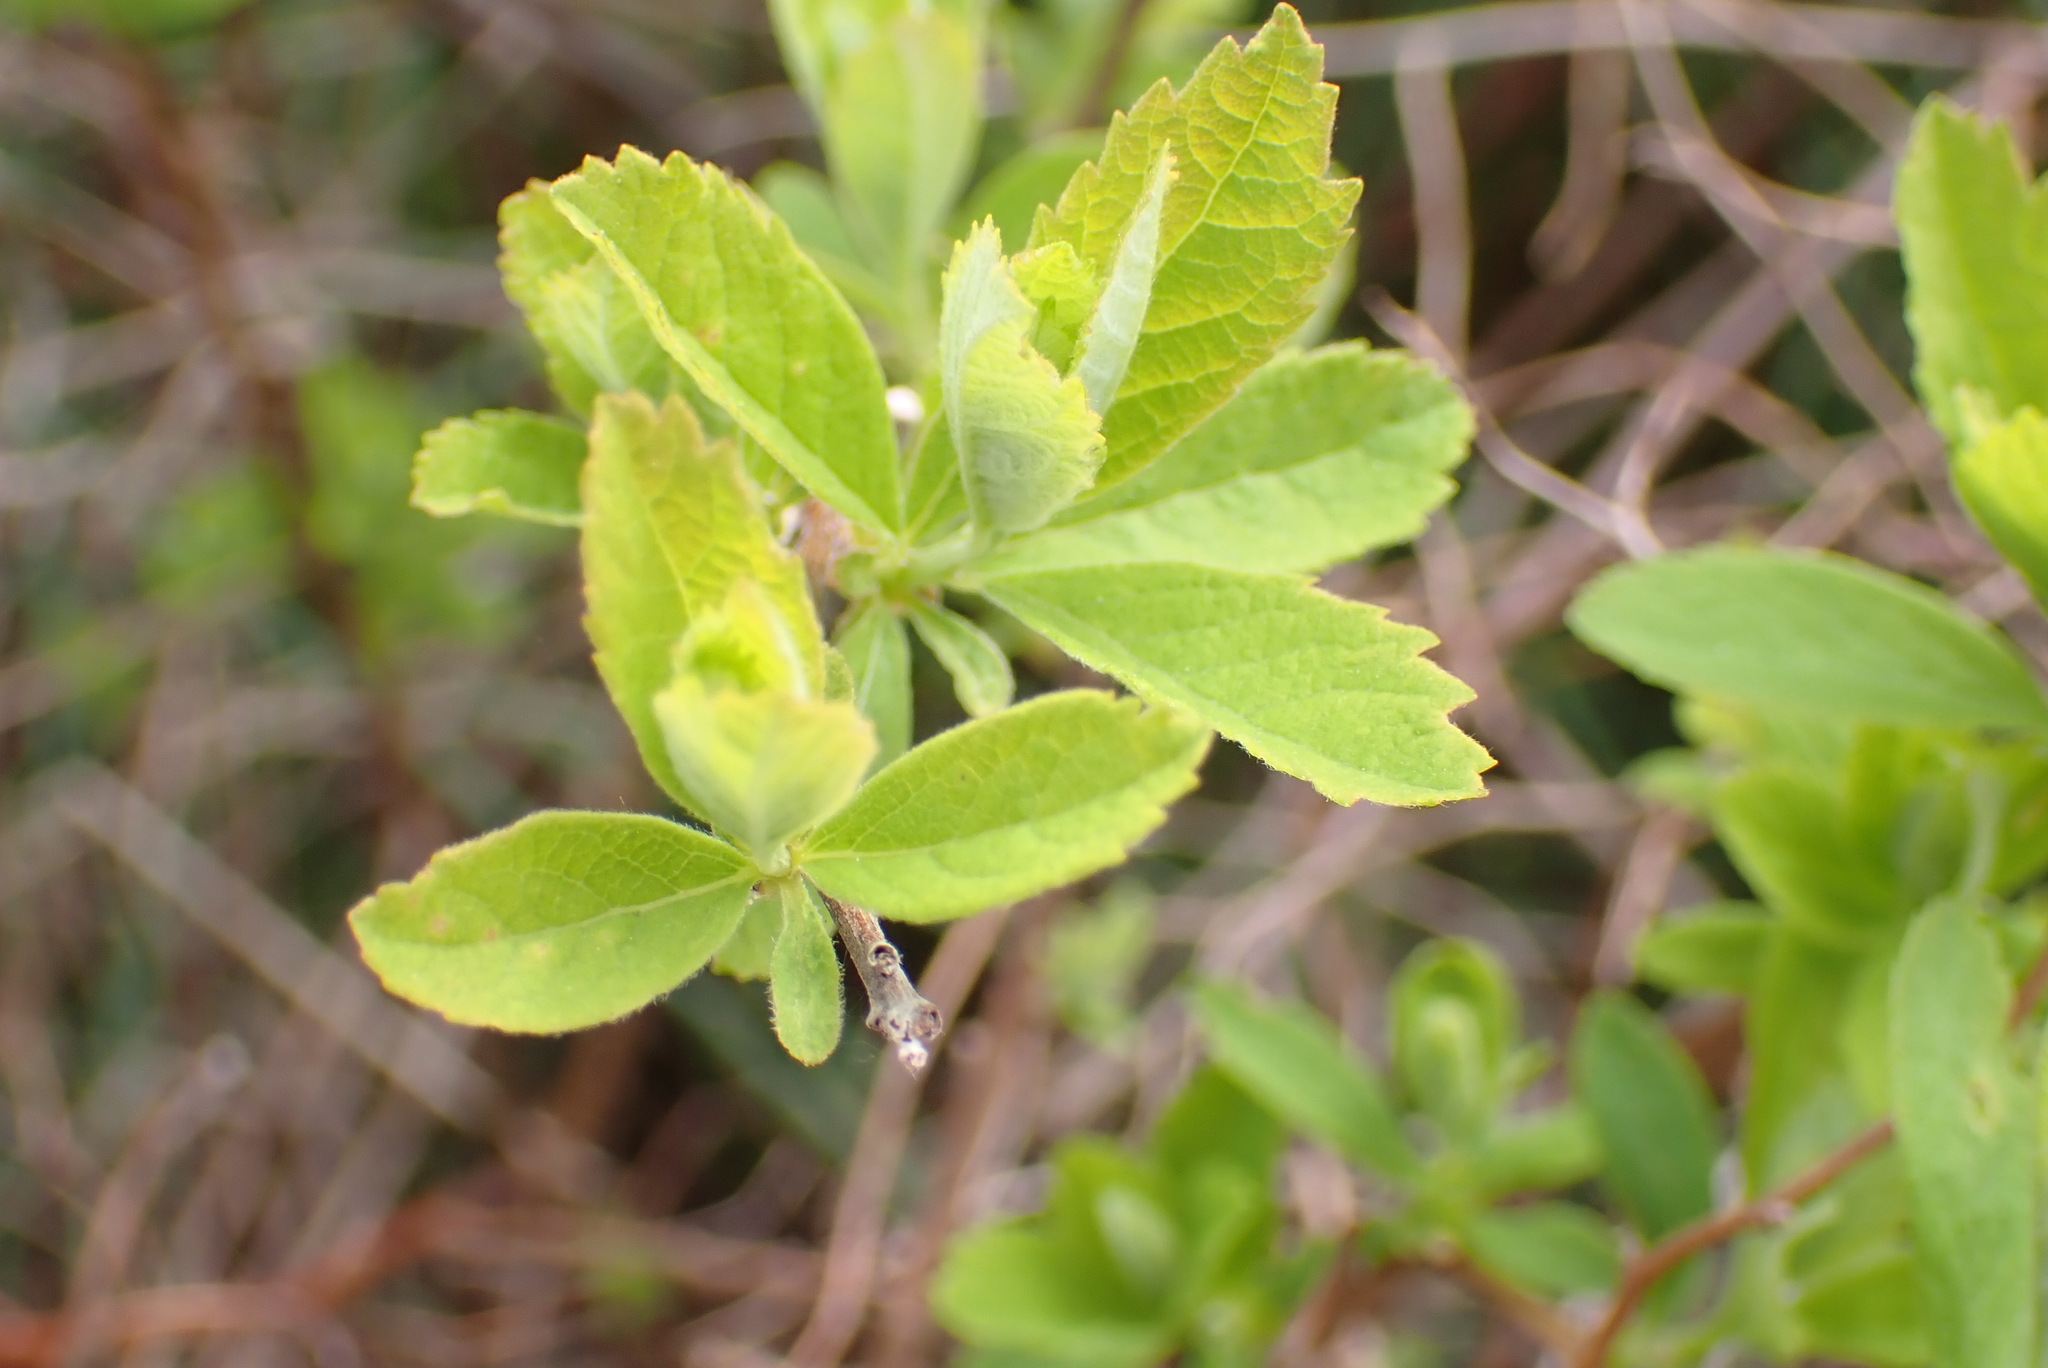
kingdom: Plantae
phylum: Tracheophyta
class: Magnoliopsida
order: Rosales
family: Rosaceae
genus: Spiraea
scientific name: Spiraea douglasii
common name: Steeplebush
